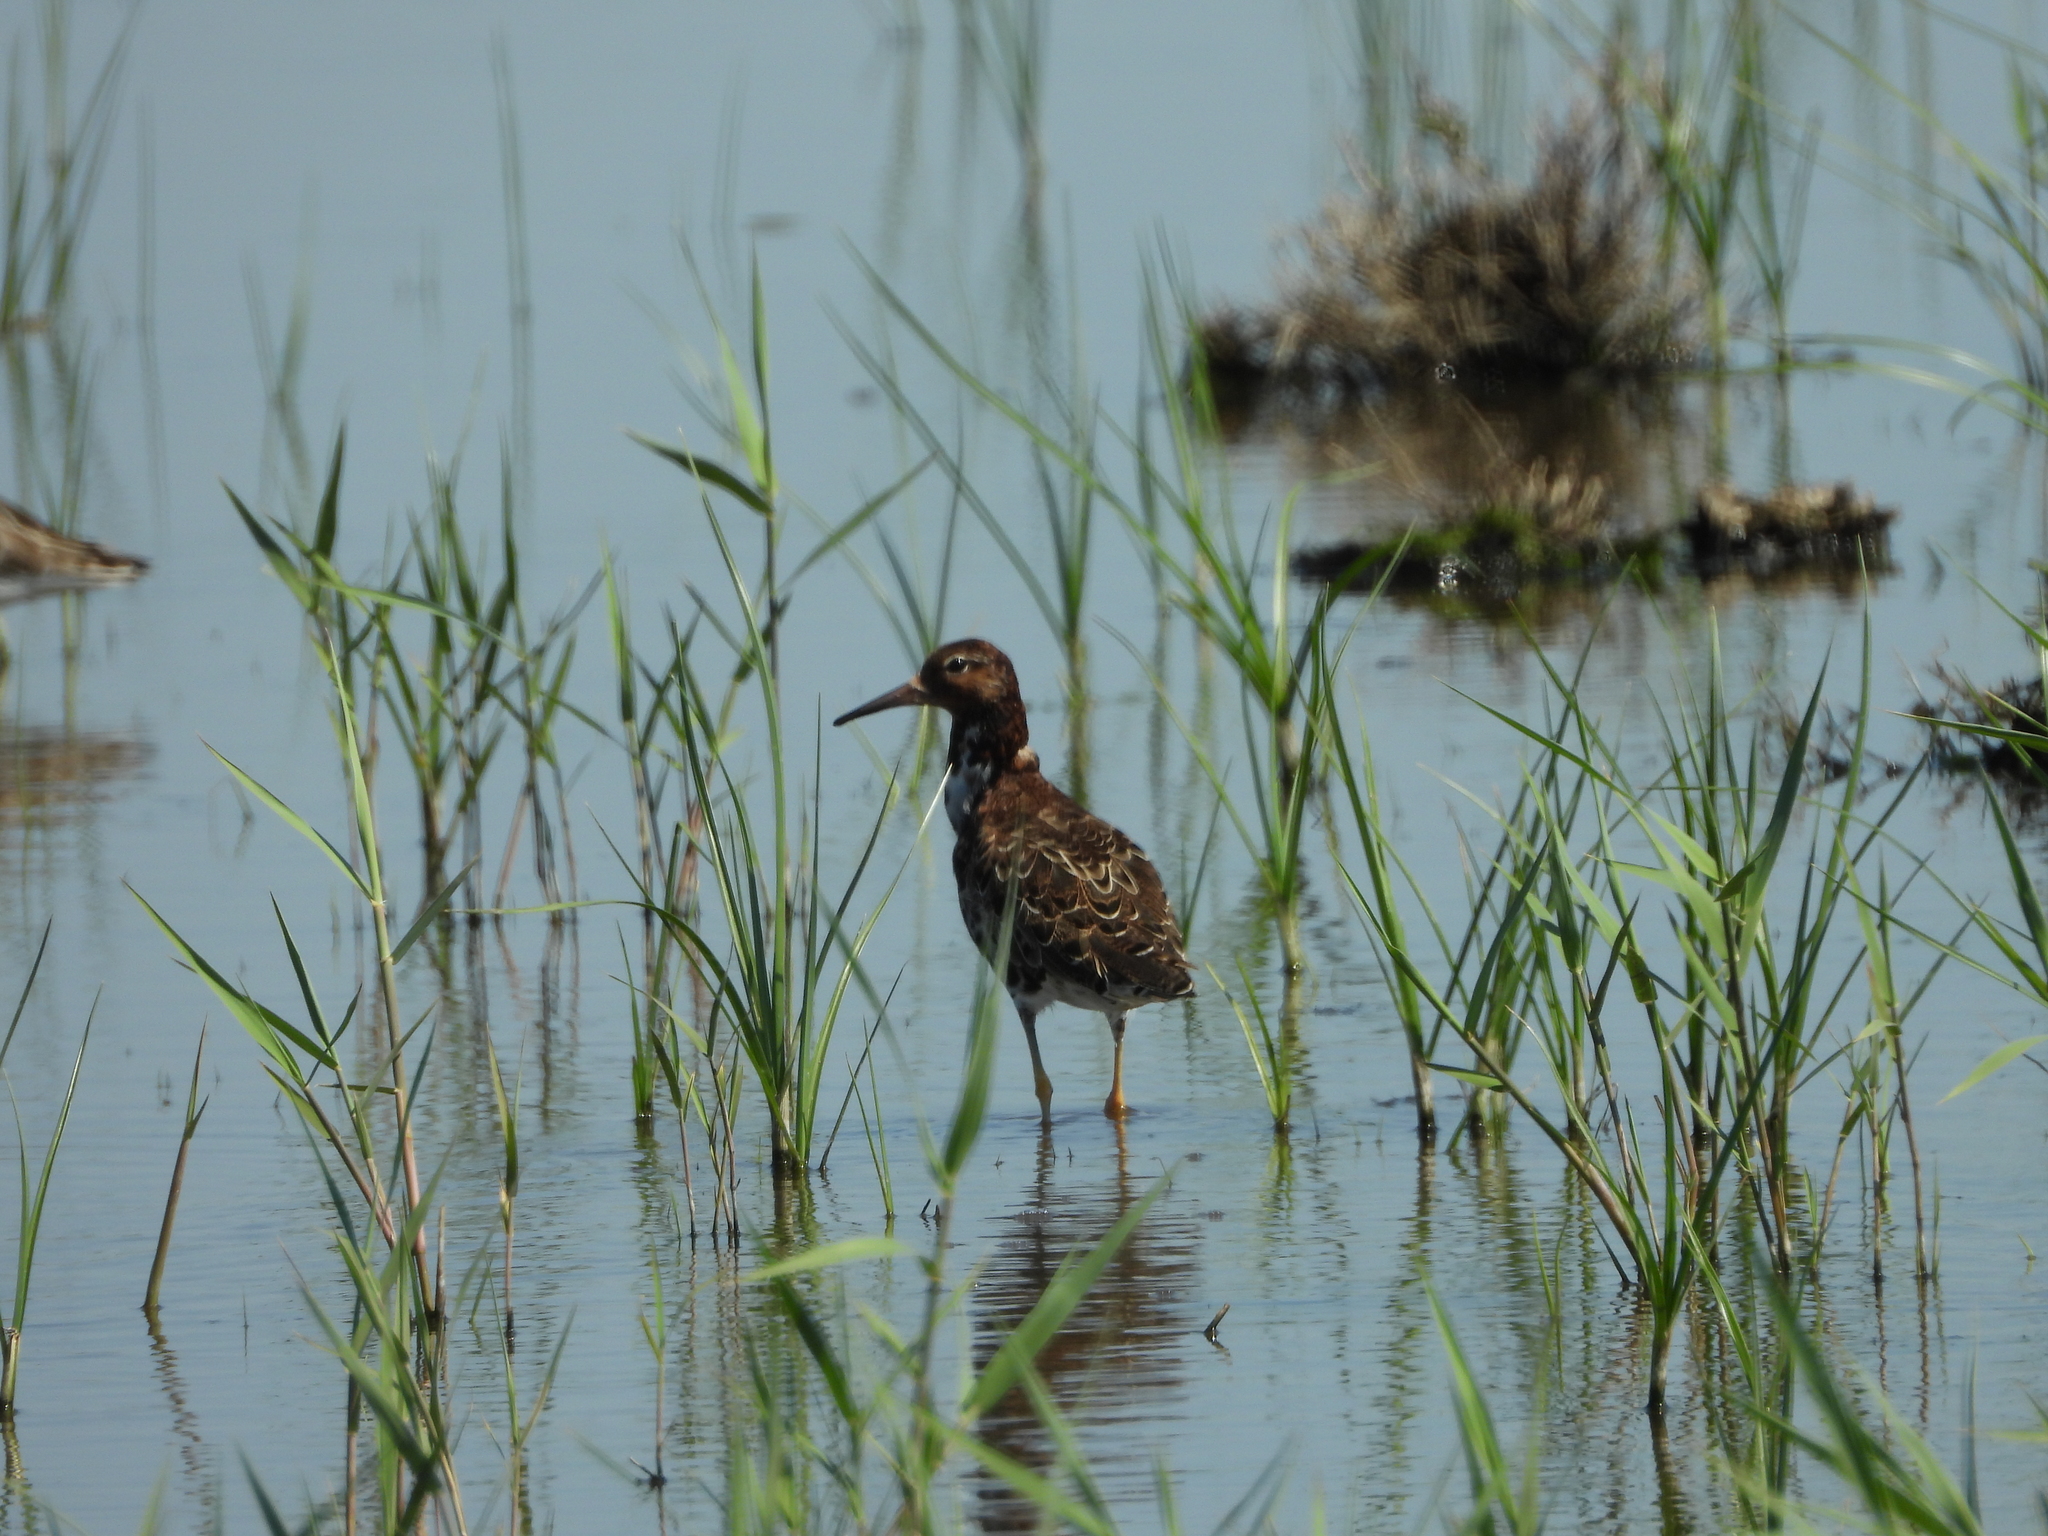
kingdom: Animalia
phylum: Chordata
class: Aves
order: Charadriiformes
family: Scolopacidae
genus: Calidris
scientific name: Calidris pugnax
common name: Ruff
